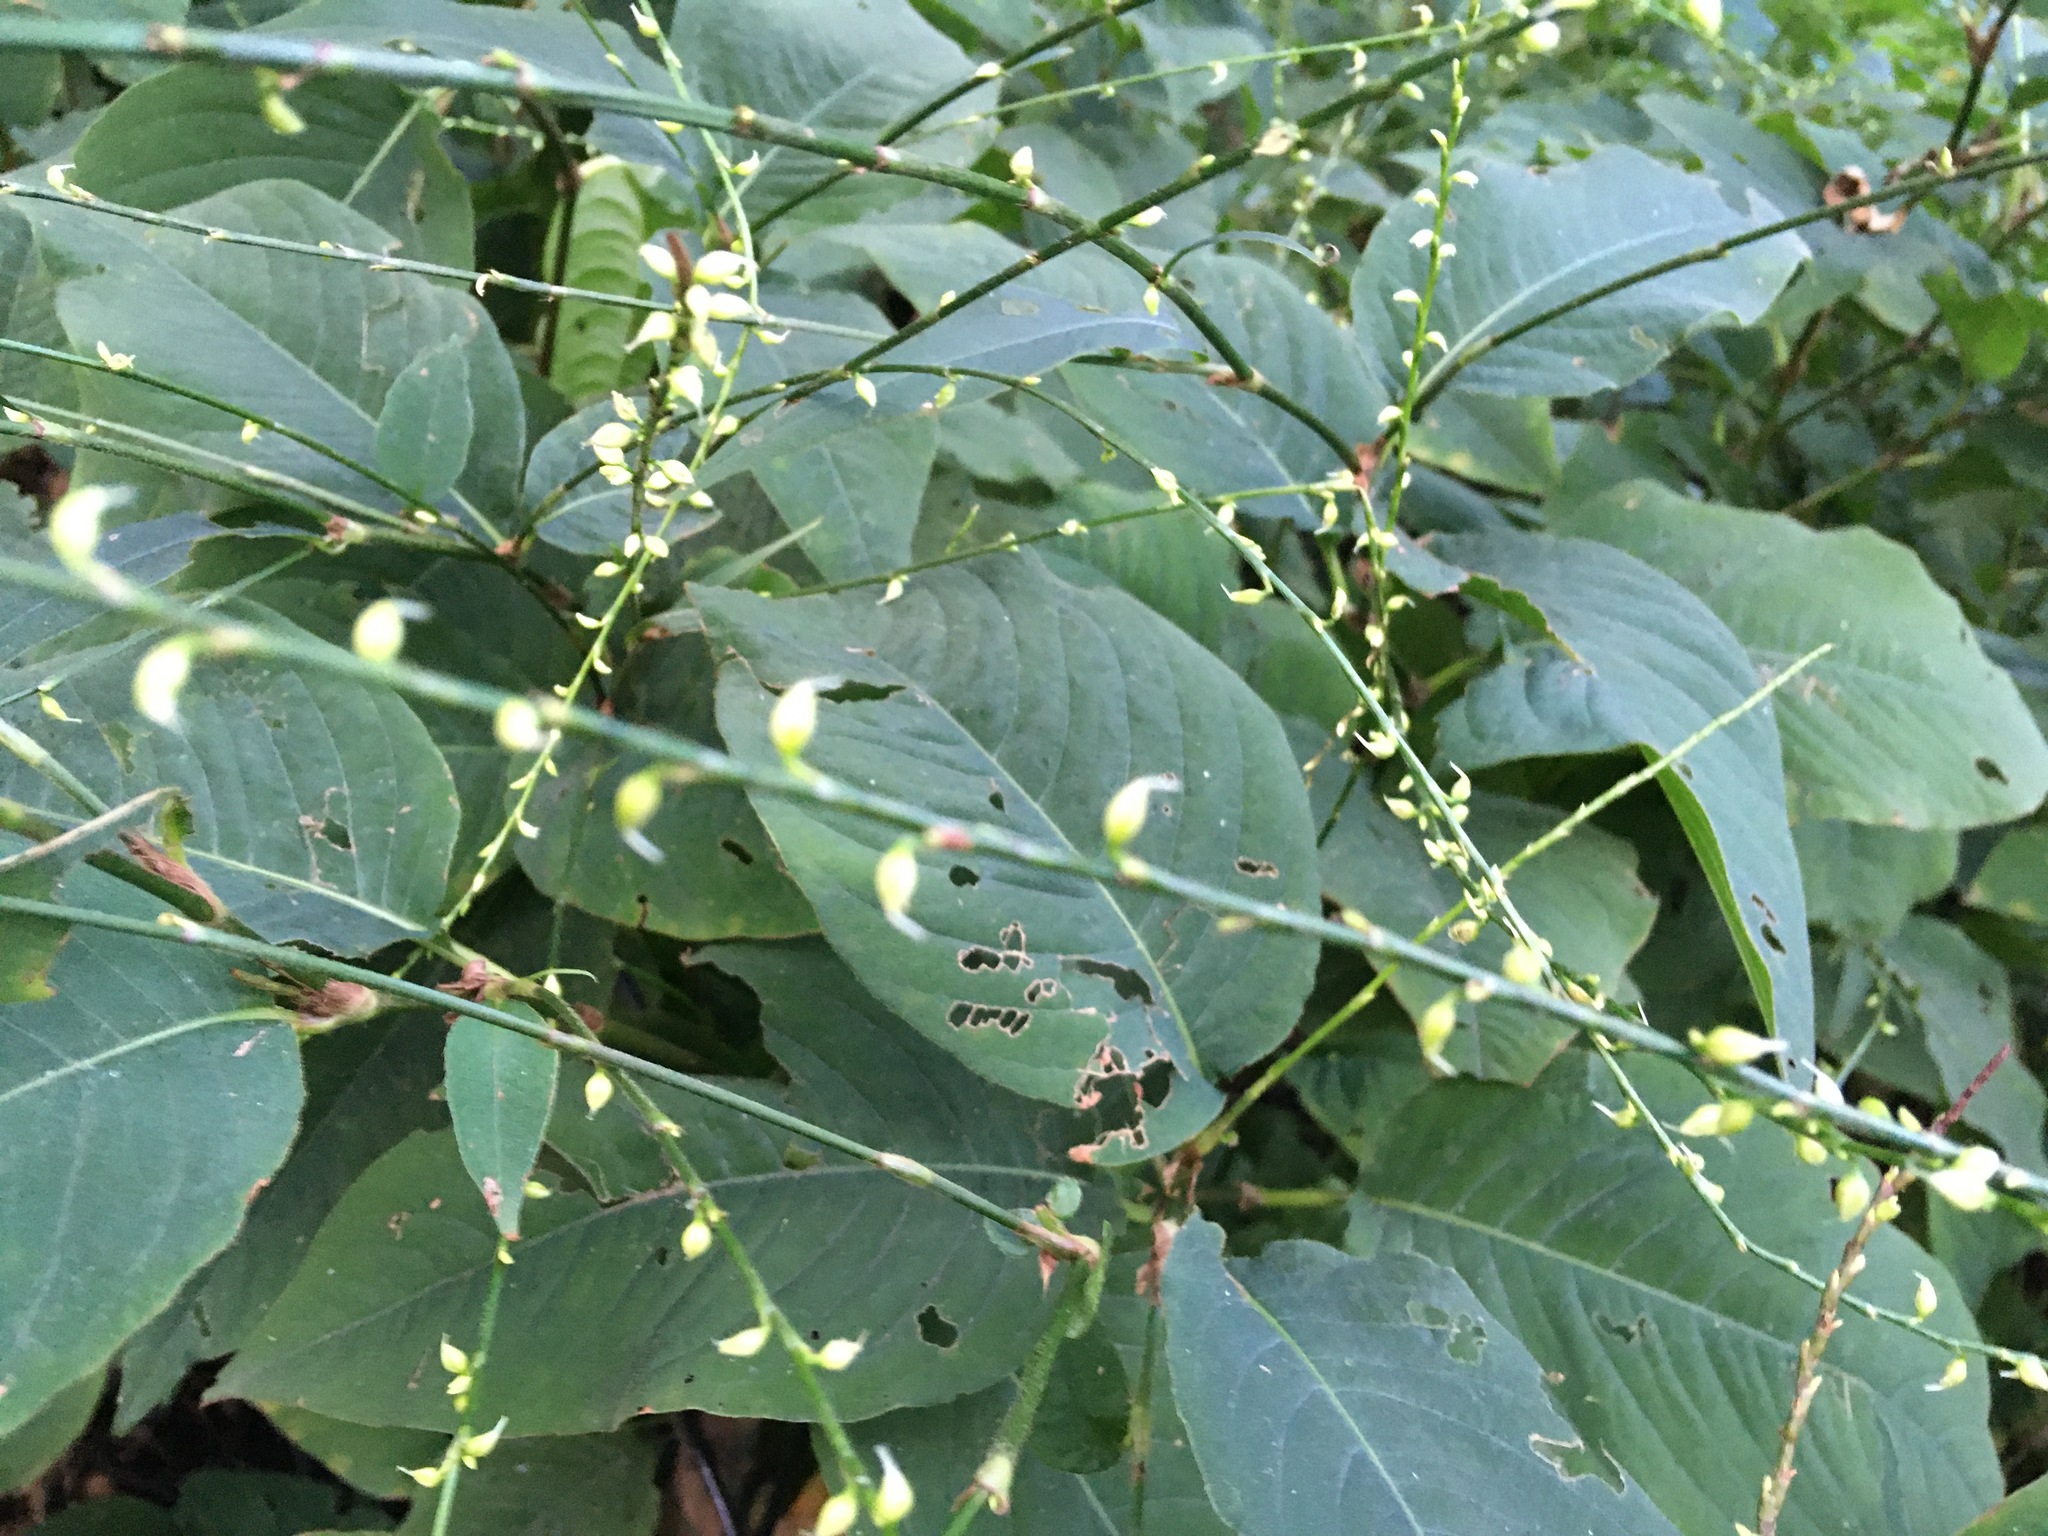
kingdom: Plantae
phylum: Tracheophyta
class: Magnoliopsida
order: Caryophyllales
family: Polygonaceae
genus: Persicaria
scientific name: Persicaria virginiana
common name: Jumpseed
